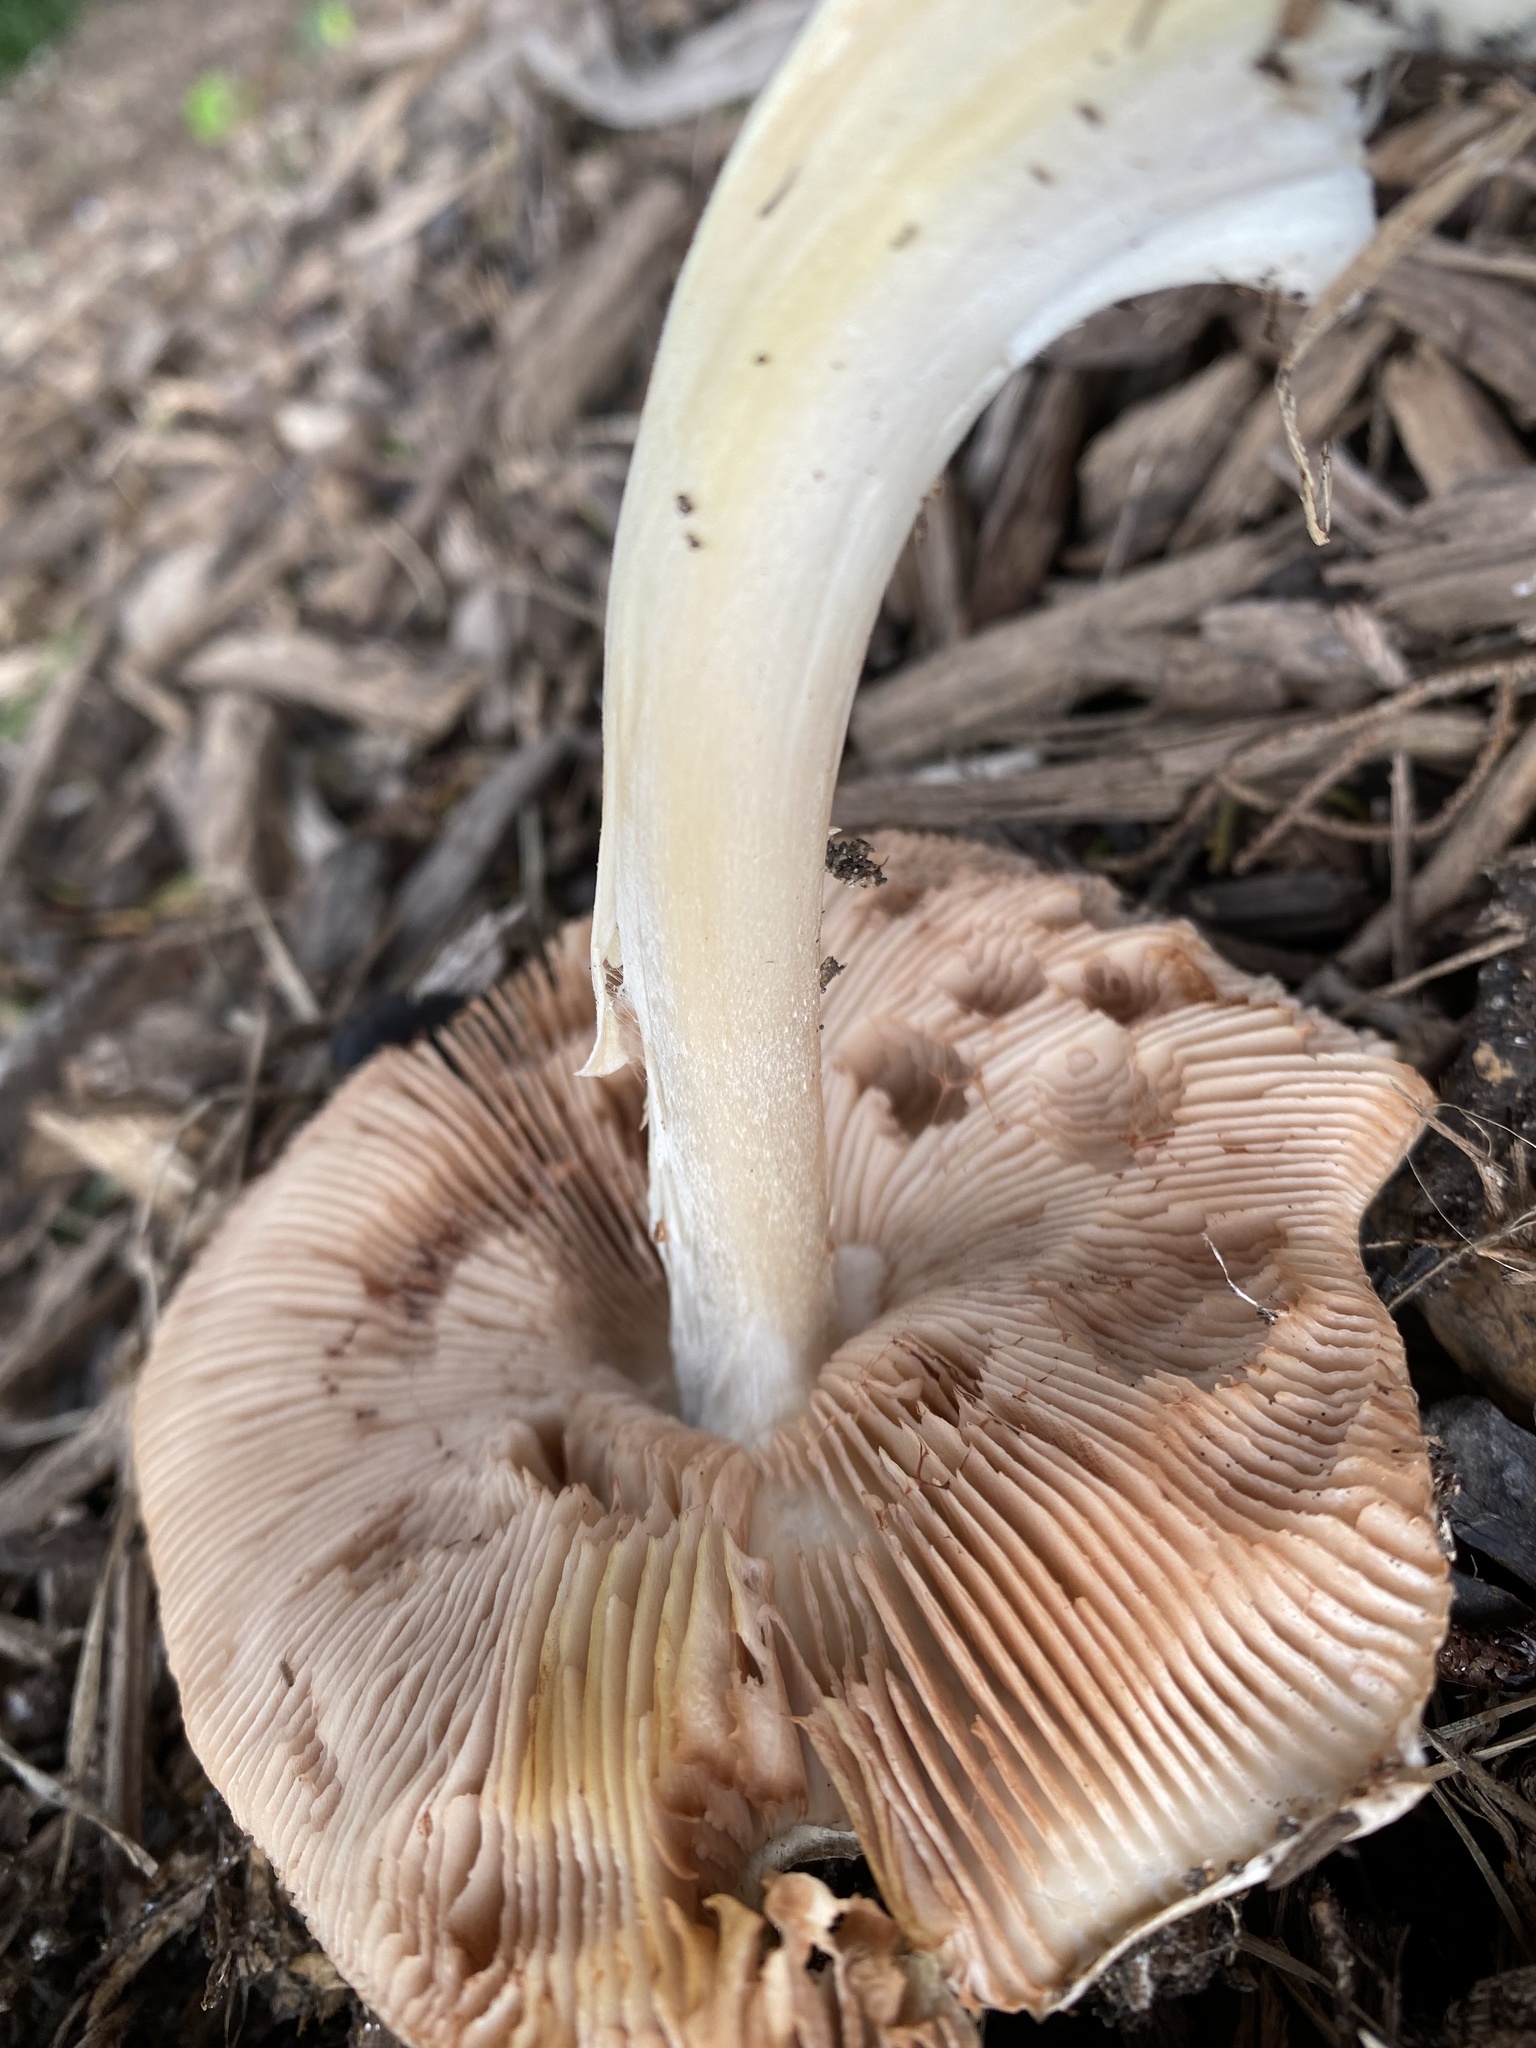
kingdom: Fungi
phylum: Basidiomycota
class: Agaricomycetes
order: Agaricales
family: Pluteaceae
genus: Volvopluteus
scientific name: Volvopluteus gloiocephalus
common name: Stubble rosegill
